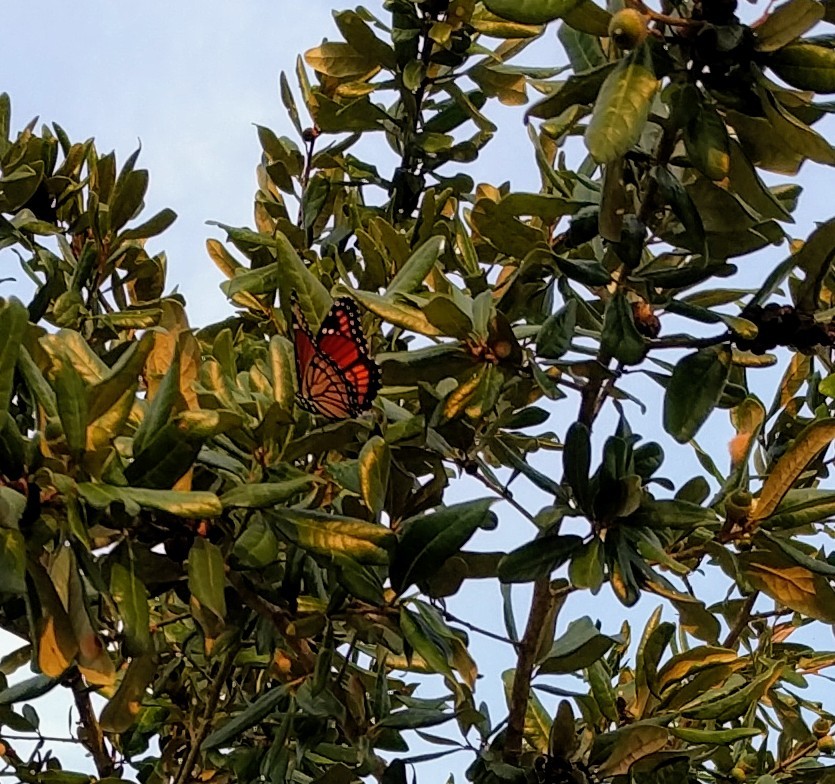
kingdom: Animalia
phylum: Arthropoda
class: Insecta
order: Lepidoptera
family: Nymphalidae
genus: Limenitis
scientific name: Limenitis archippus
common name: Viceroy
